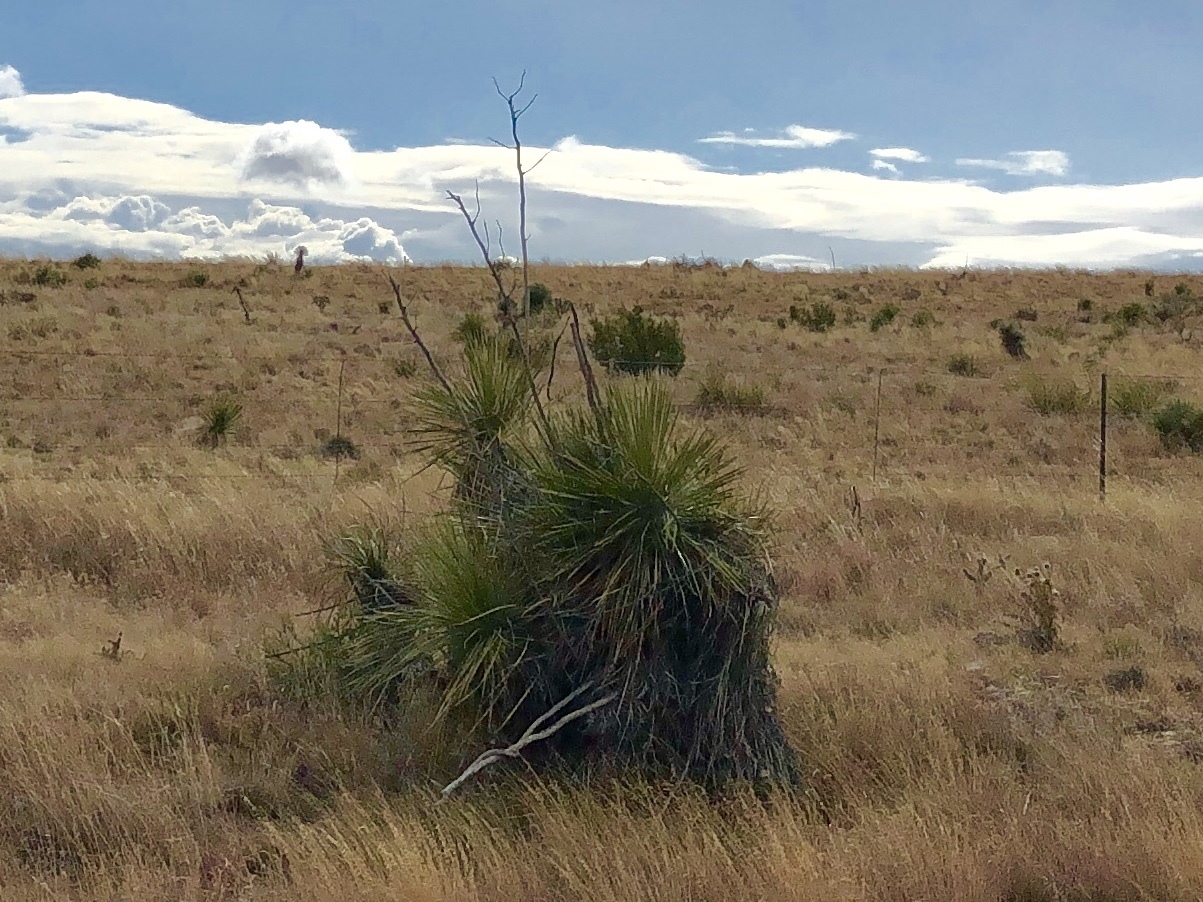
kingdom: Plantae
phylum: Tracheophyta
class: Liliopsida
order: Asparagales
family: Asparagaceae
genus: Yucca
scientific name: Yucca elata
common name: Palmella
